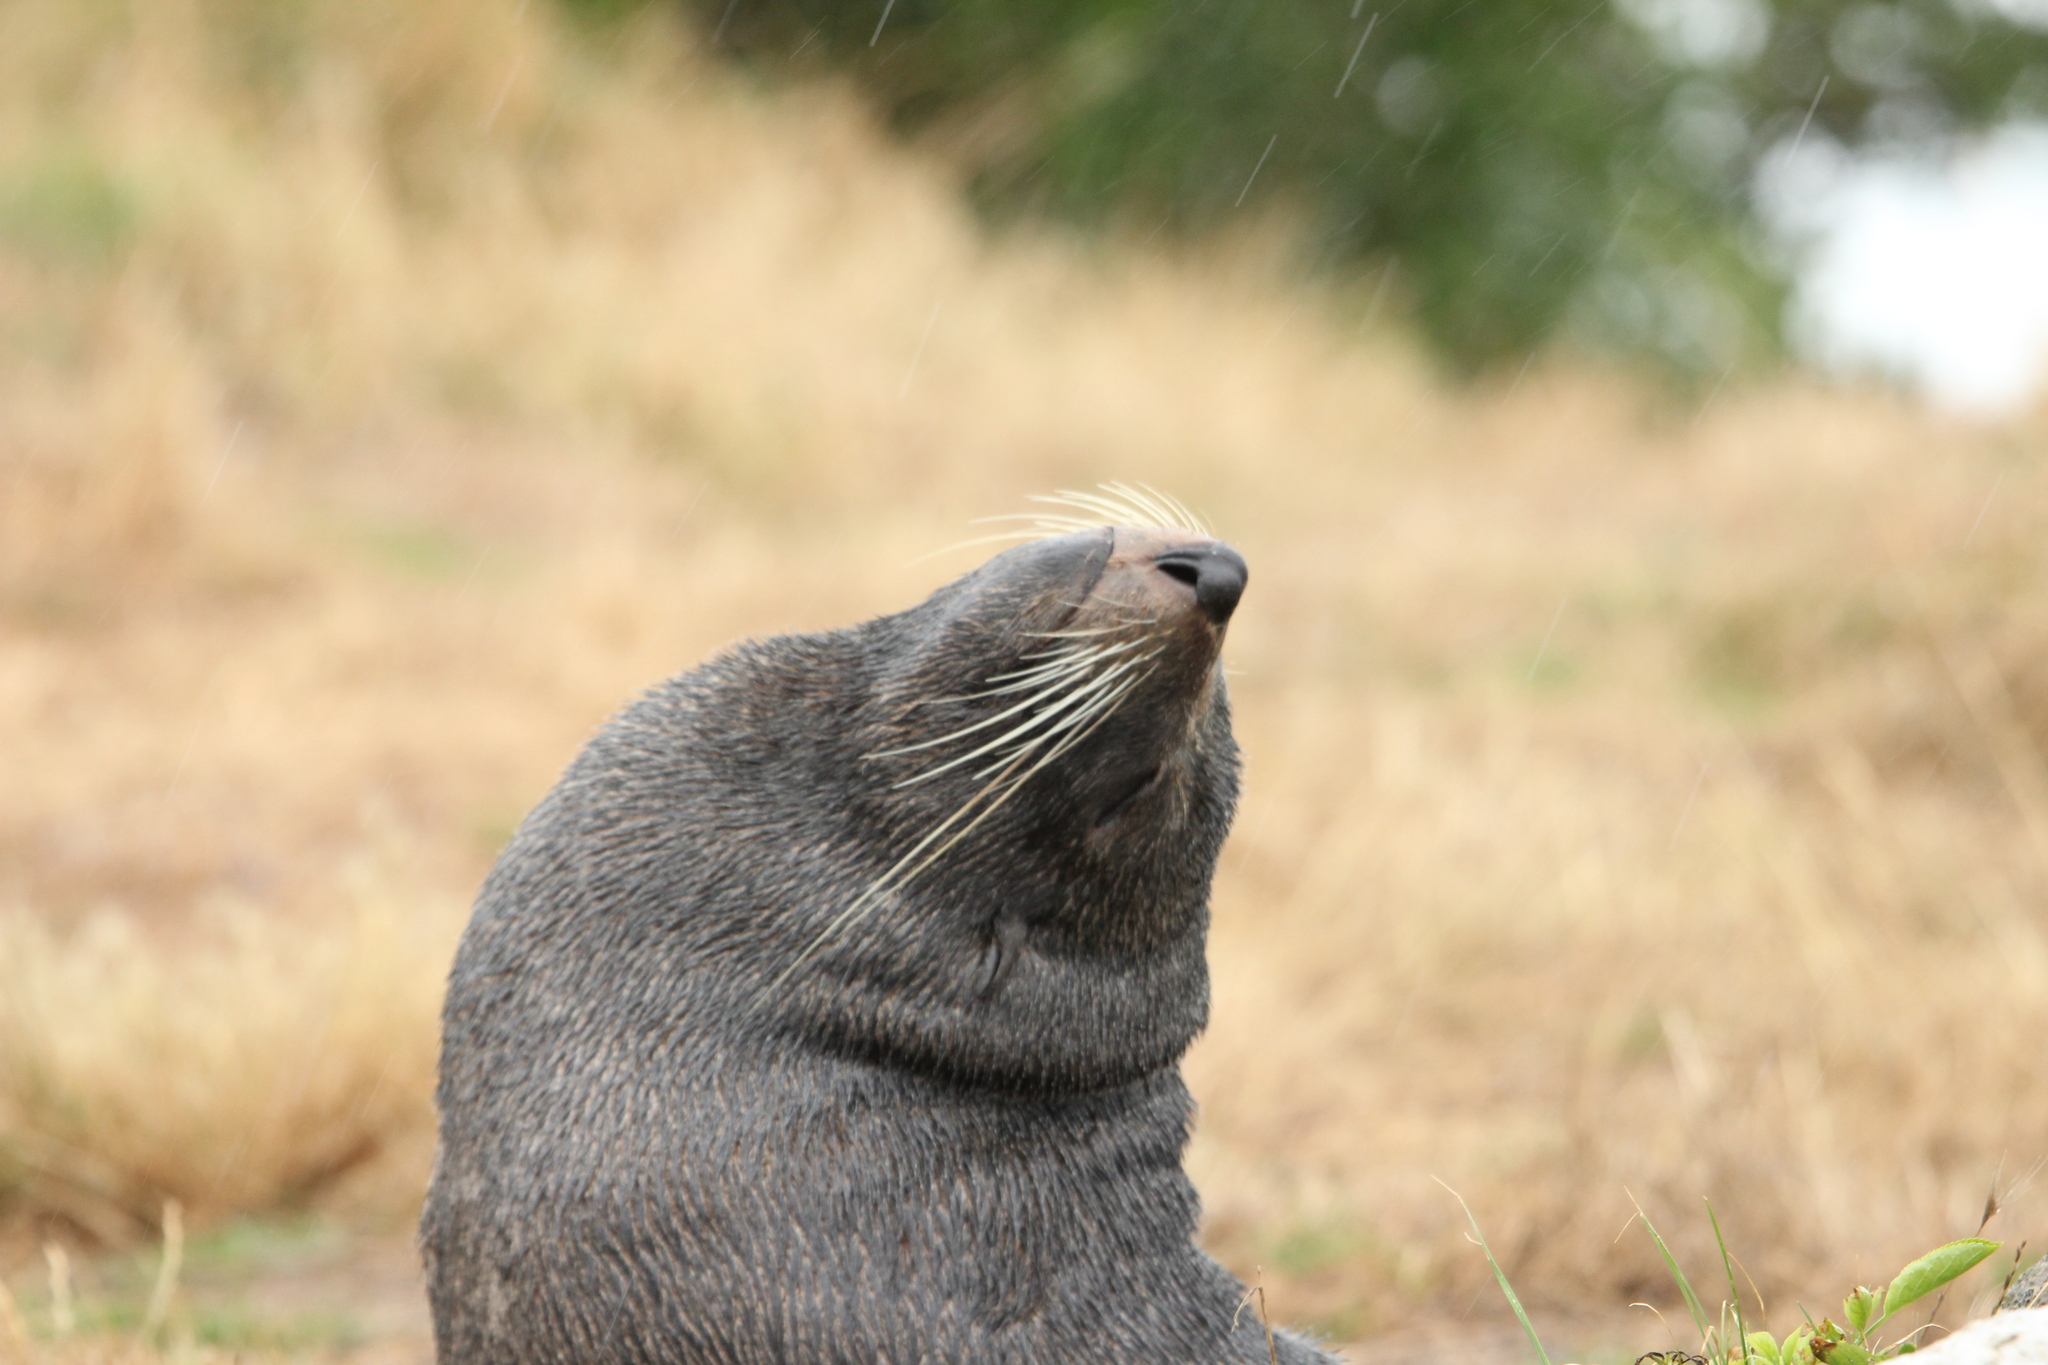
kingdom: Animalia
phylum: Chordata
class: Mammalia
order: Carnivora
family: Otariidae
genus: Arctocephalus
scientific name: Arctocephalus forsteri
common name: New zealand fur seal
